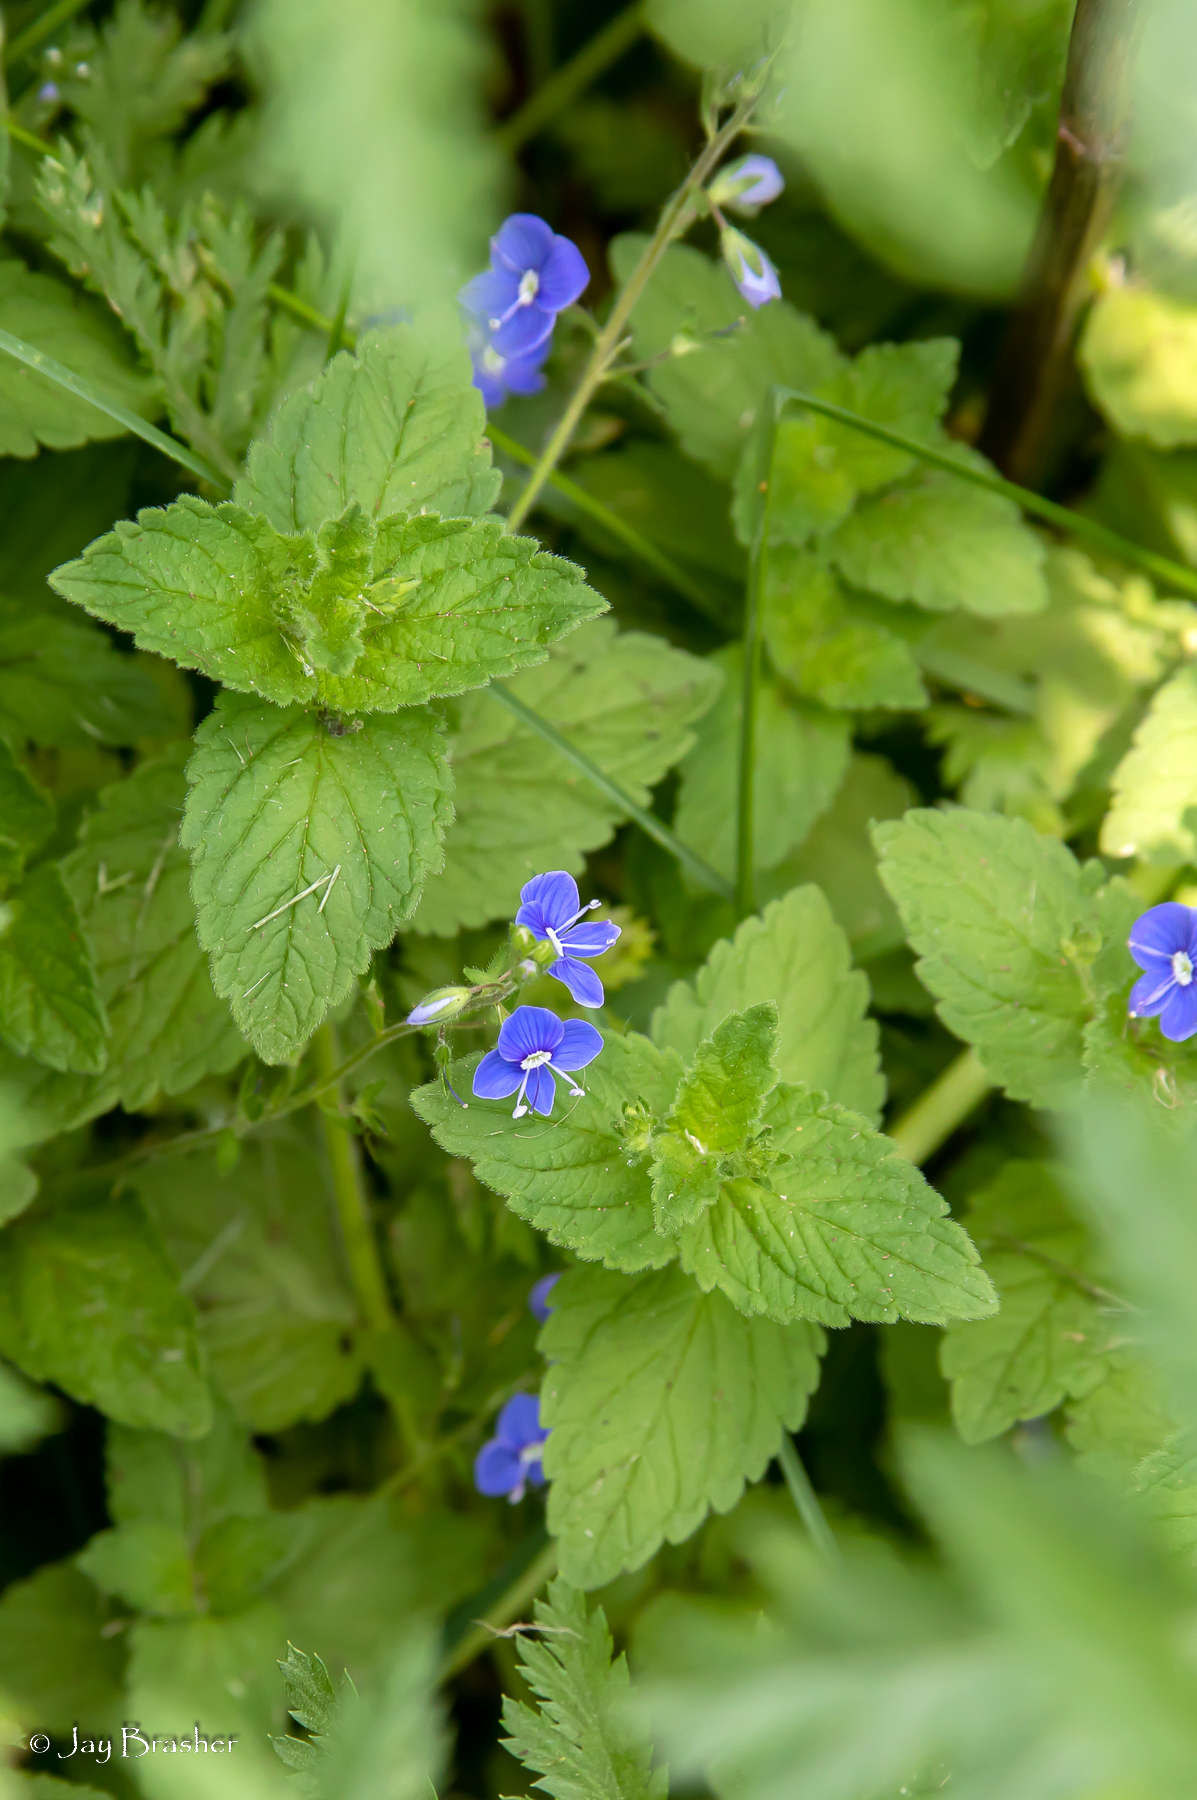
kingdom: Plantae
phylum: Tracheophyta
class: Magnoliopsida
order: Lamiales
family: Plantaginaceae
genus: Veronica
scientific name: Veronica chamaedrys
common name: Germander speedwell
